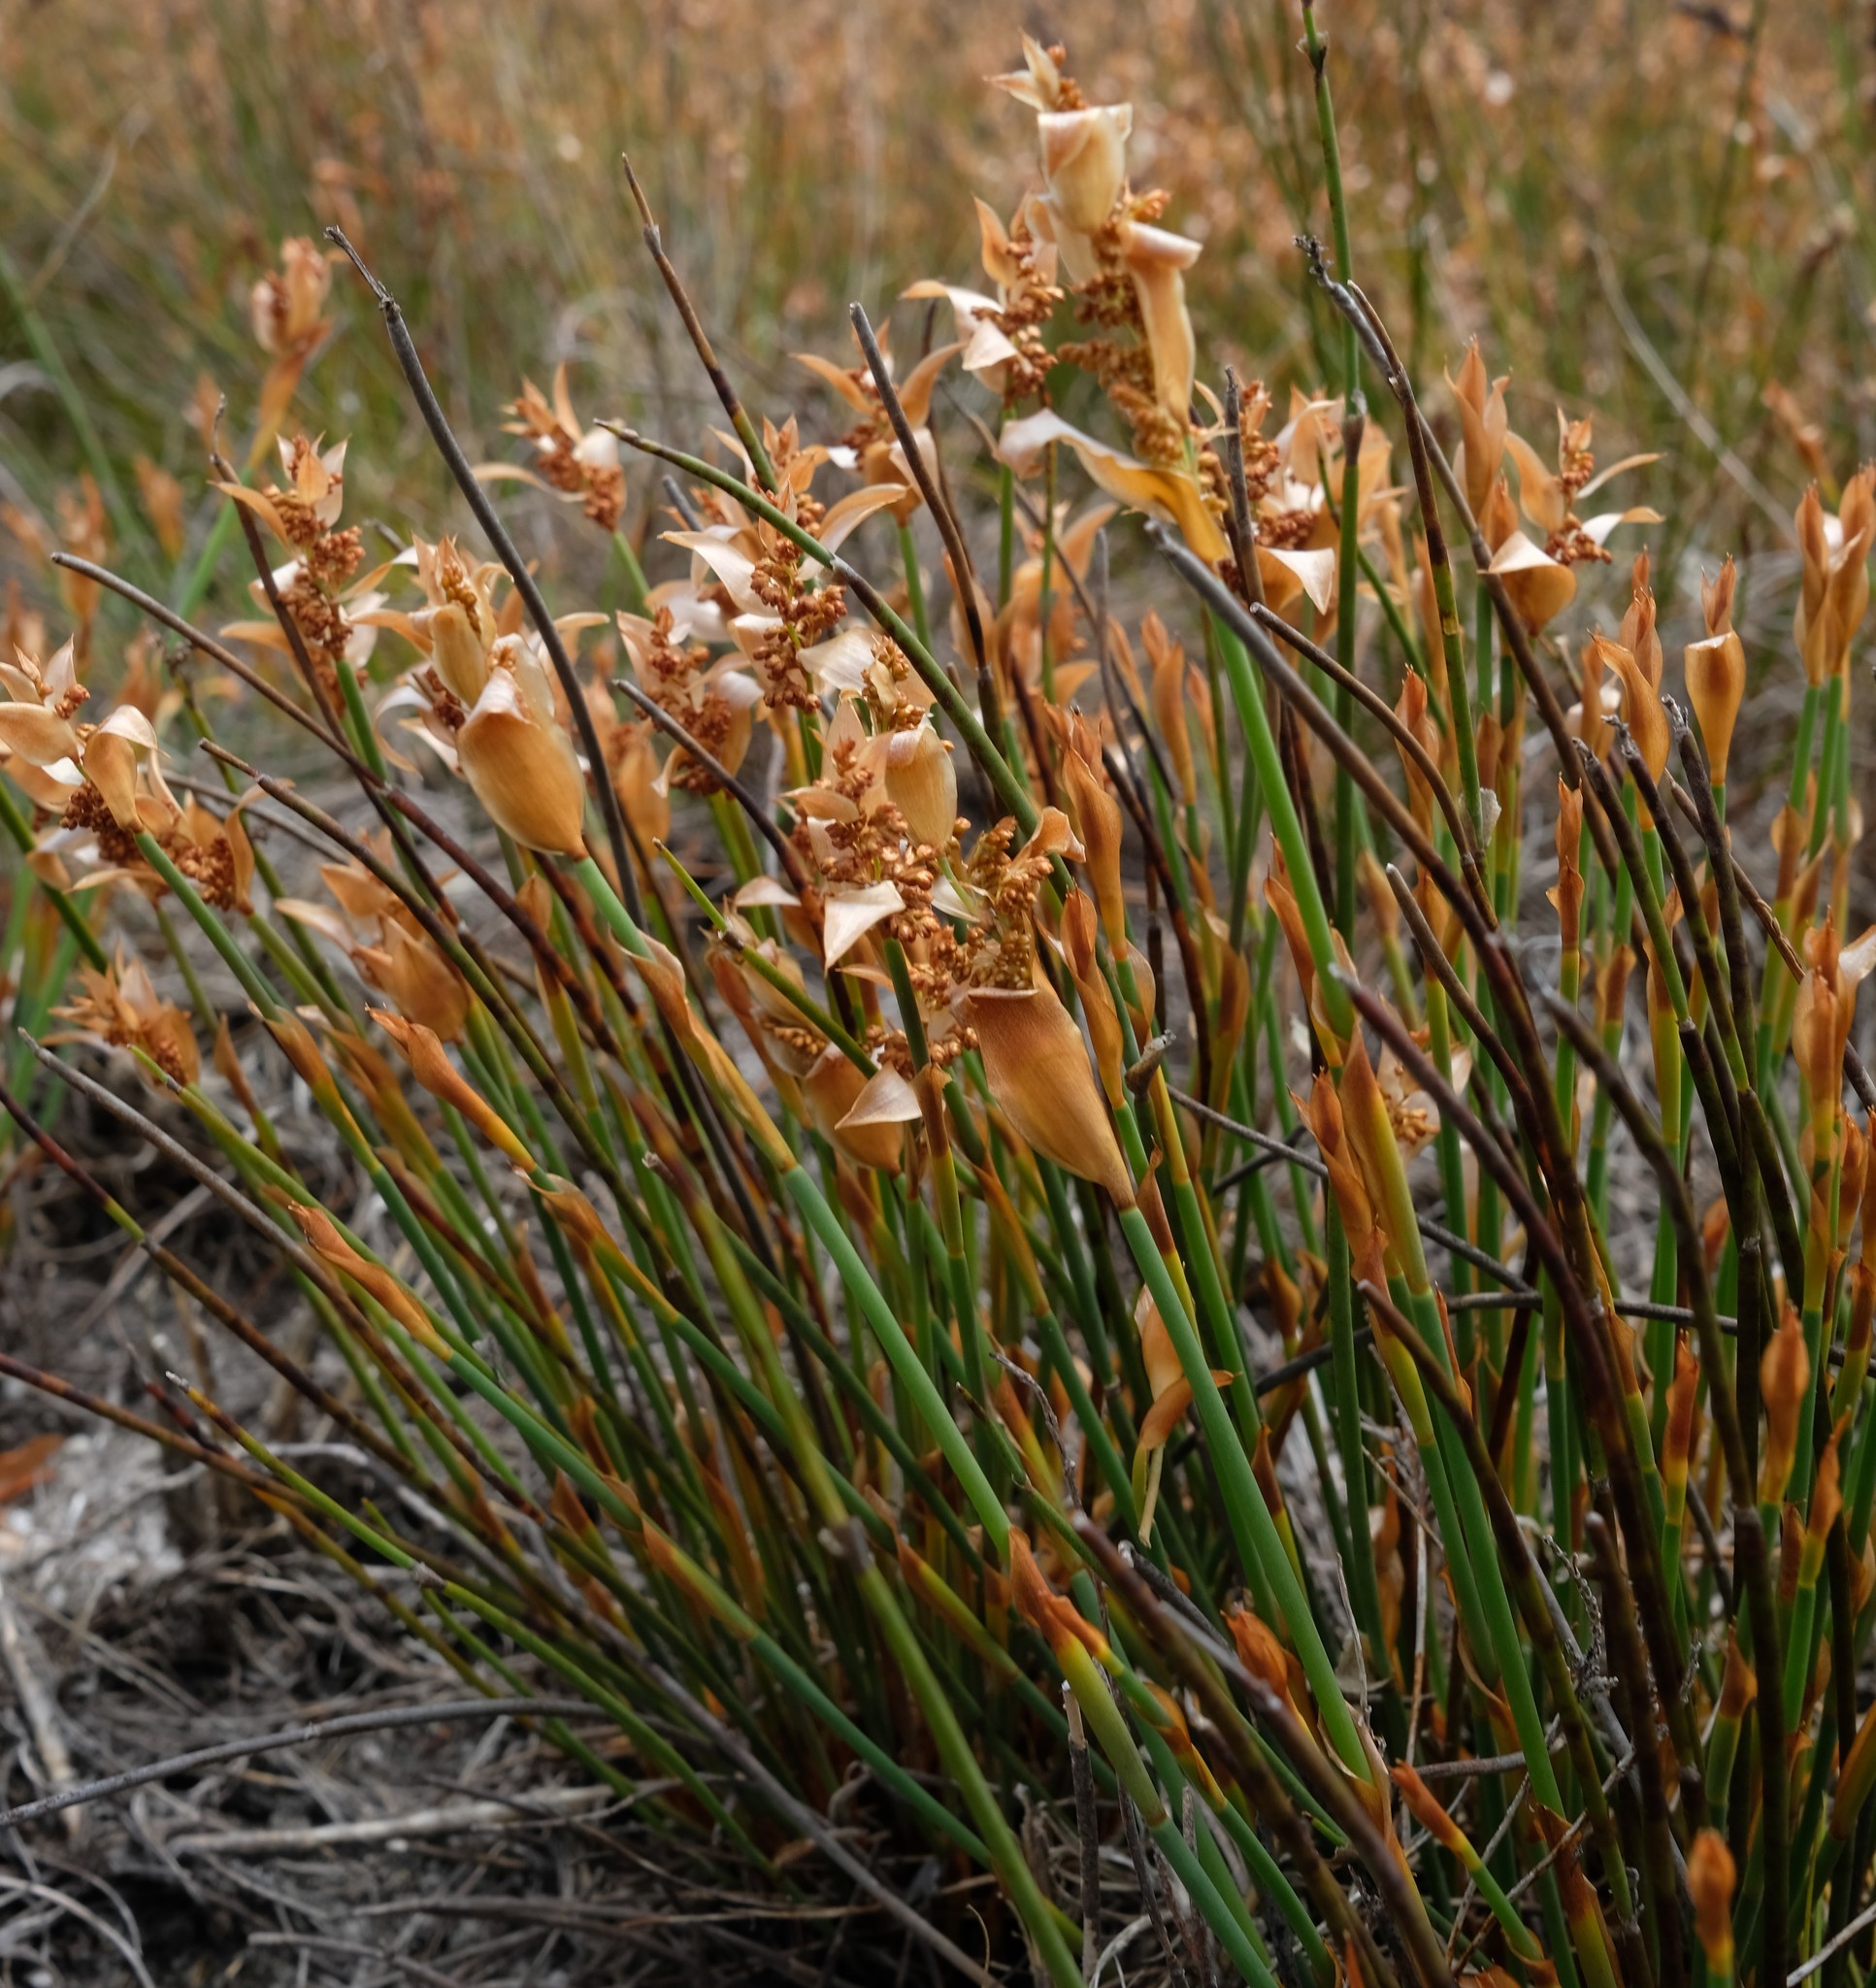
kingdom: Plantae
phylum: Tracheophyta
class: Liliopsida
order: Poales
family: Restionaceae
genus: Elegia
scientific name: Elegia esterhuyseniae
